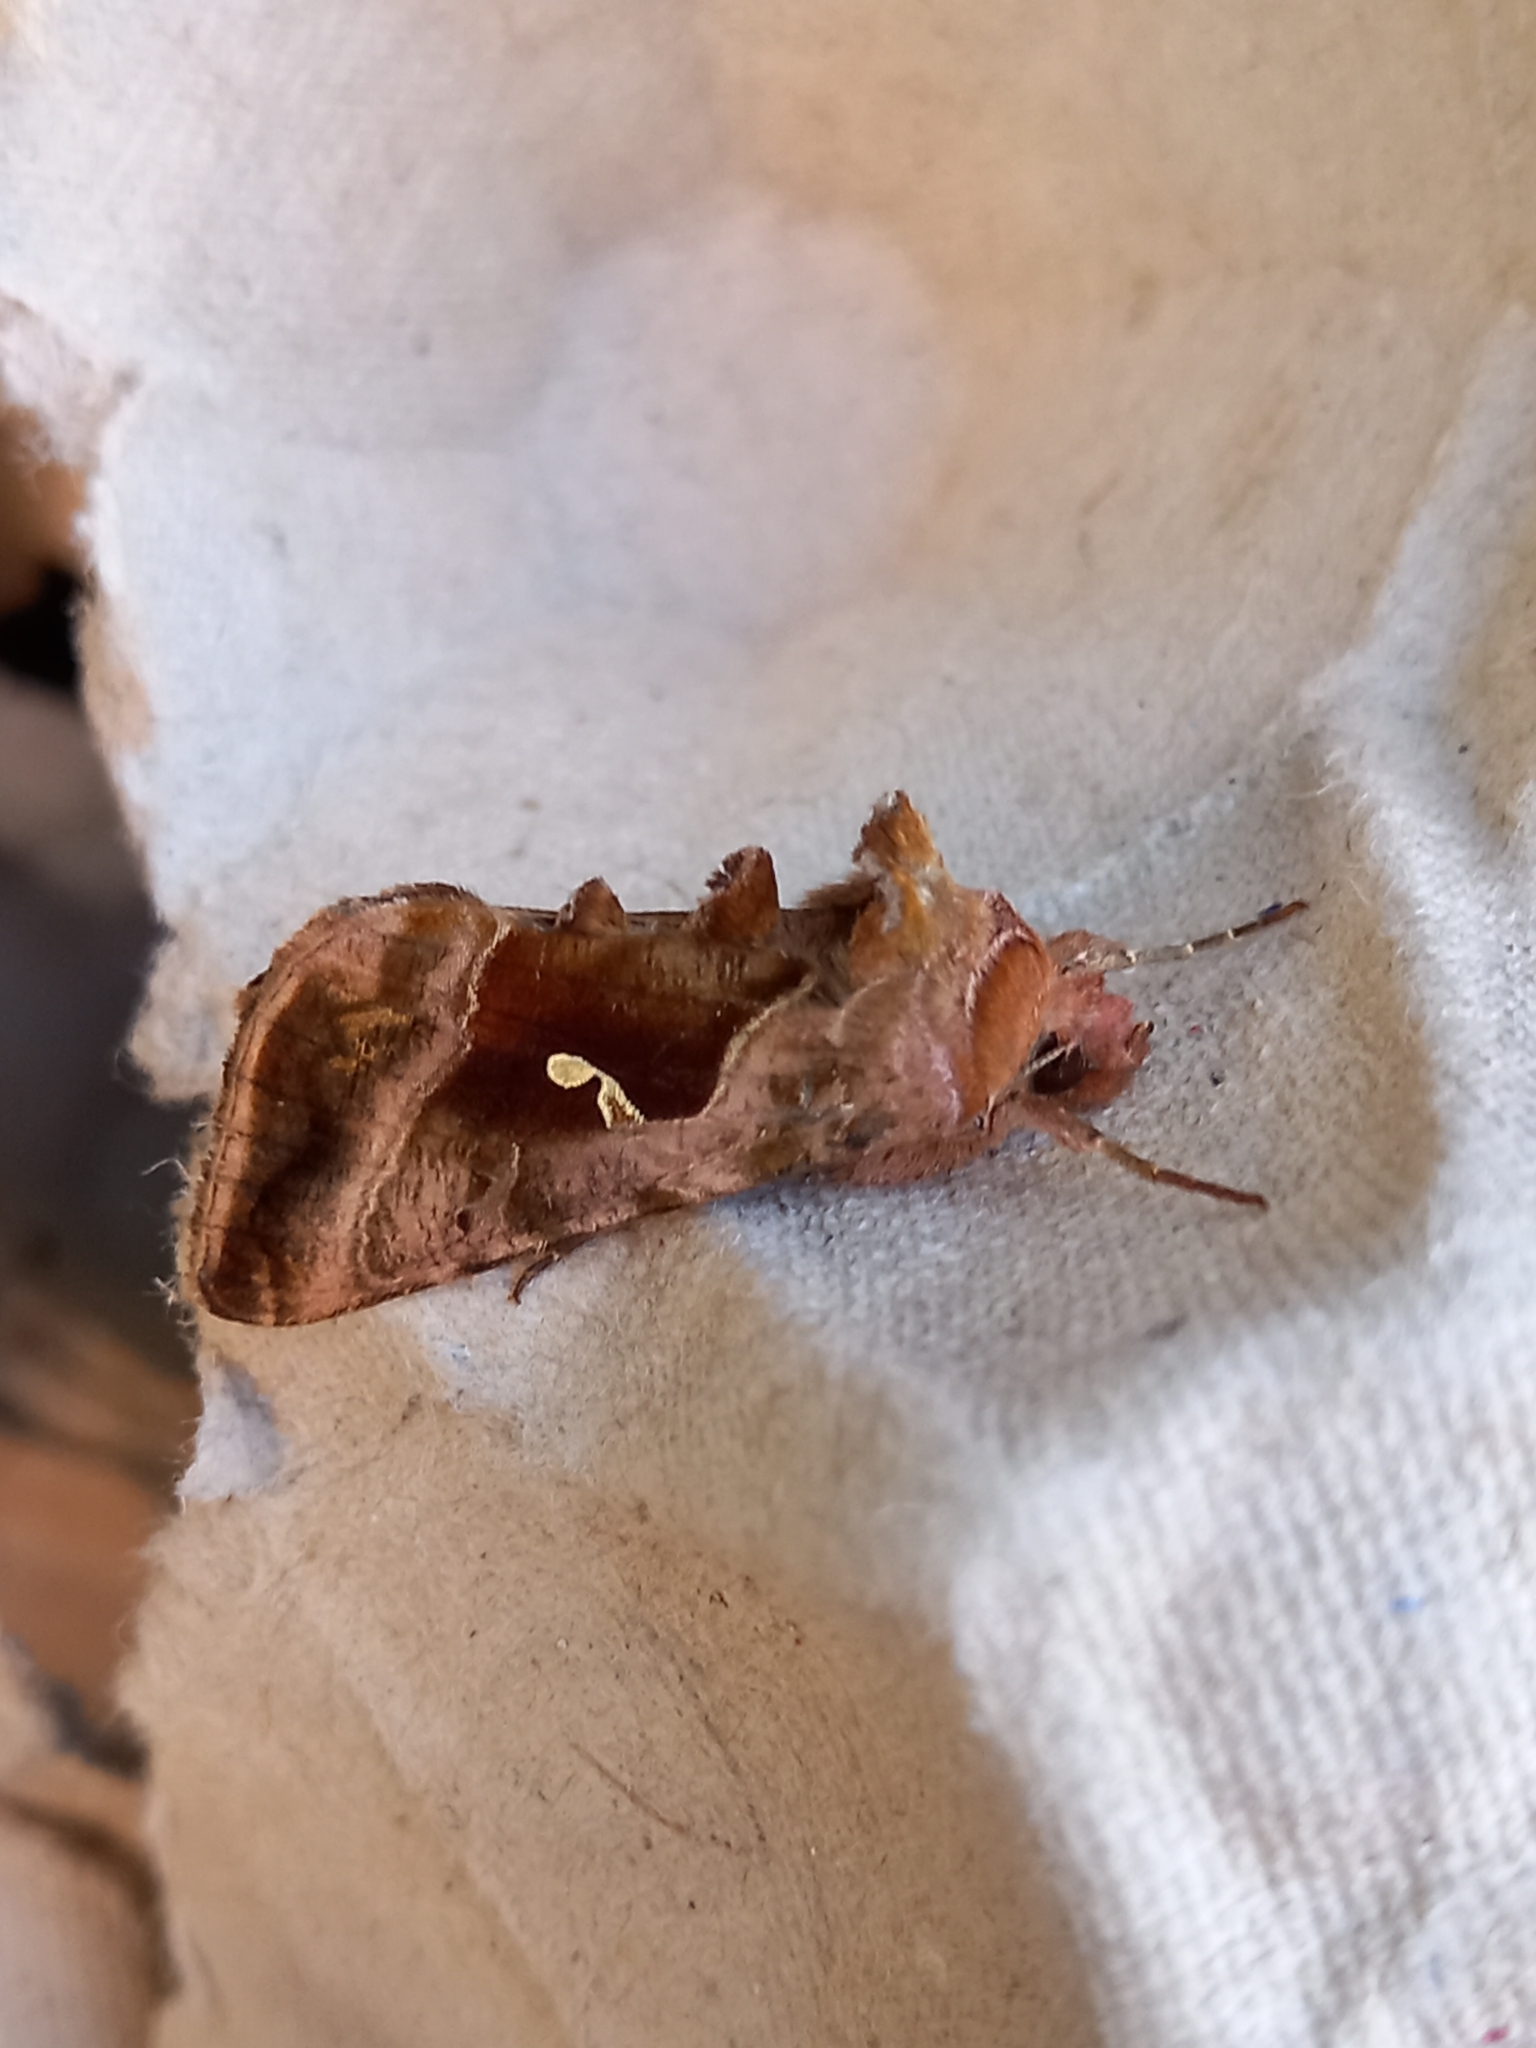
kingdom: Animalia
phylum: Arthropoda
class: Insecta
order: Lepidoptera
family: Noctuidae
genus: Autographa
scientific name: Autographa jota
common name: Plain golden y
